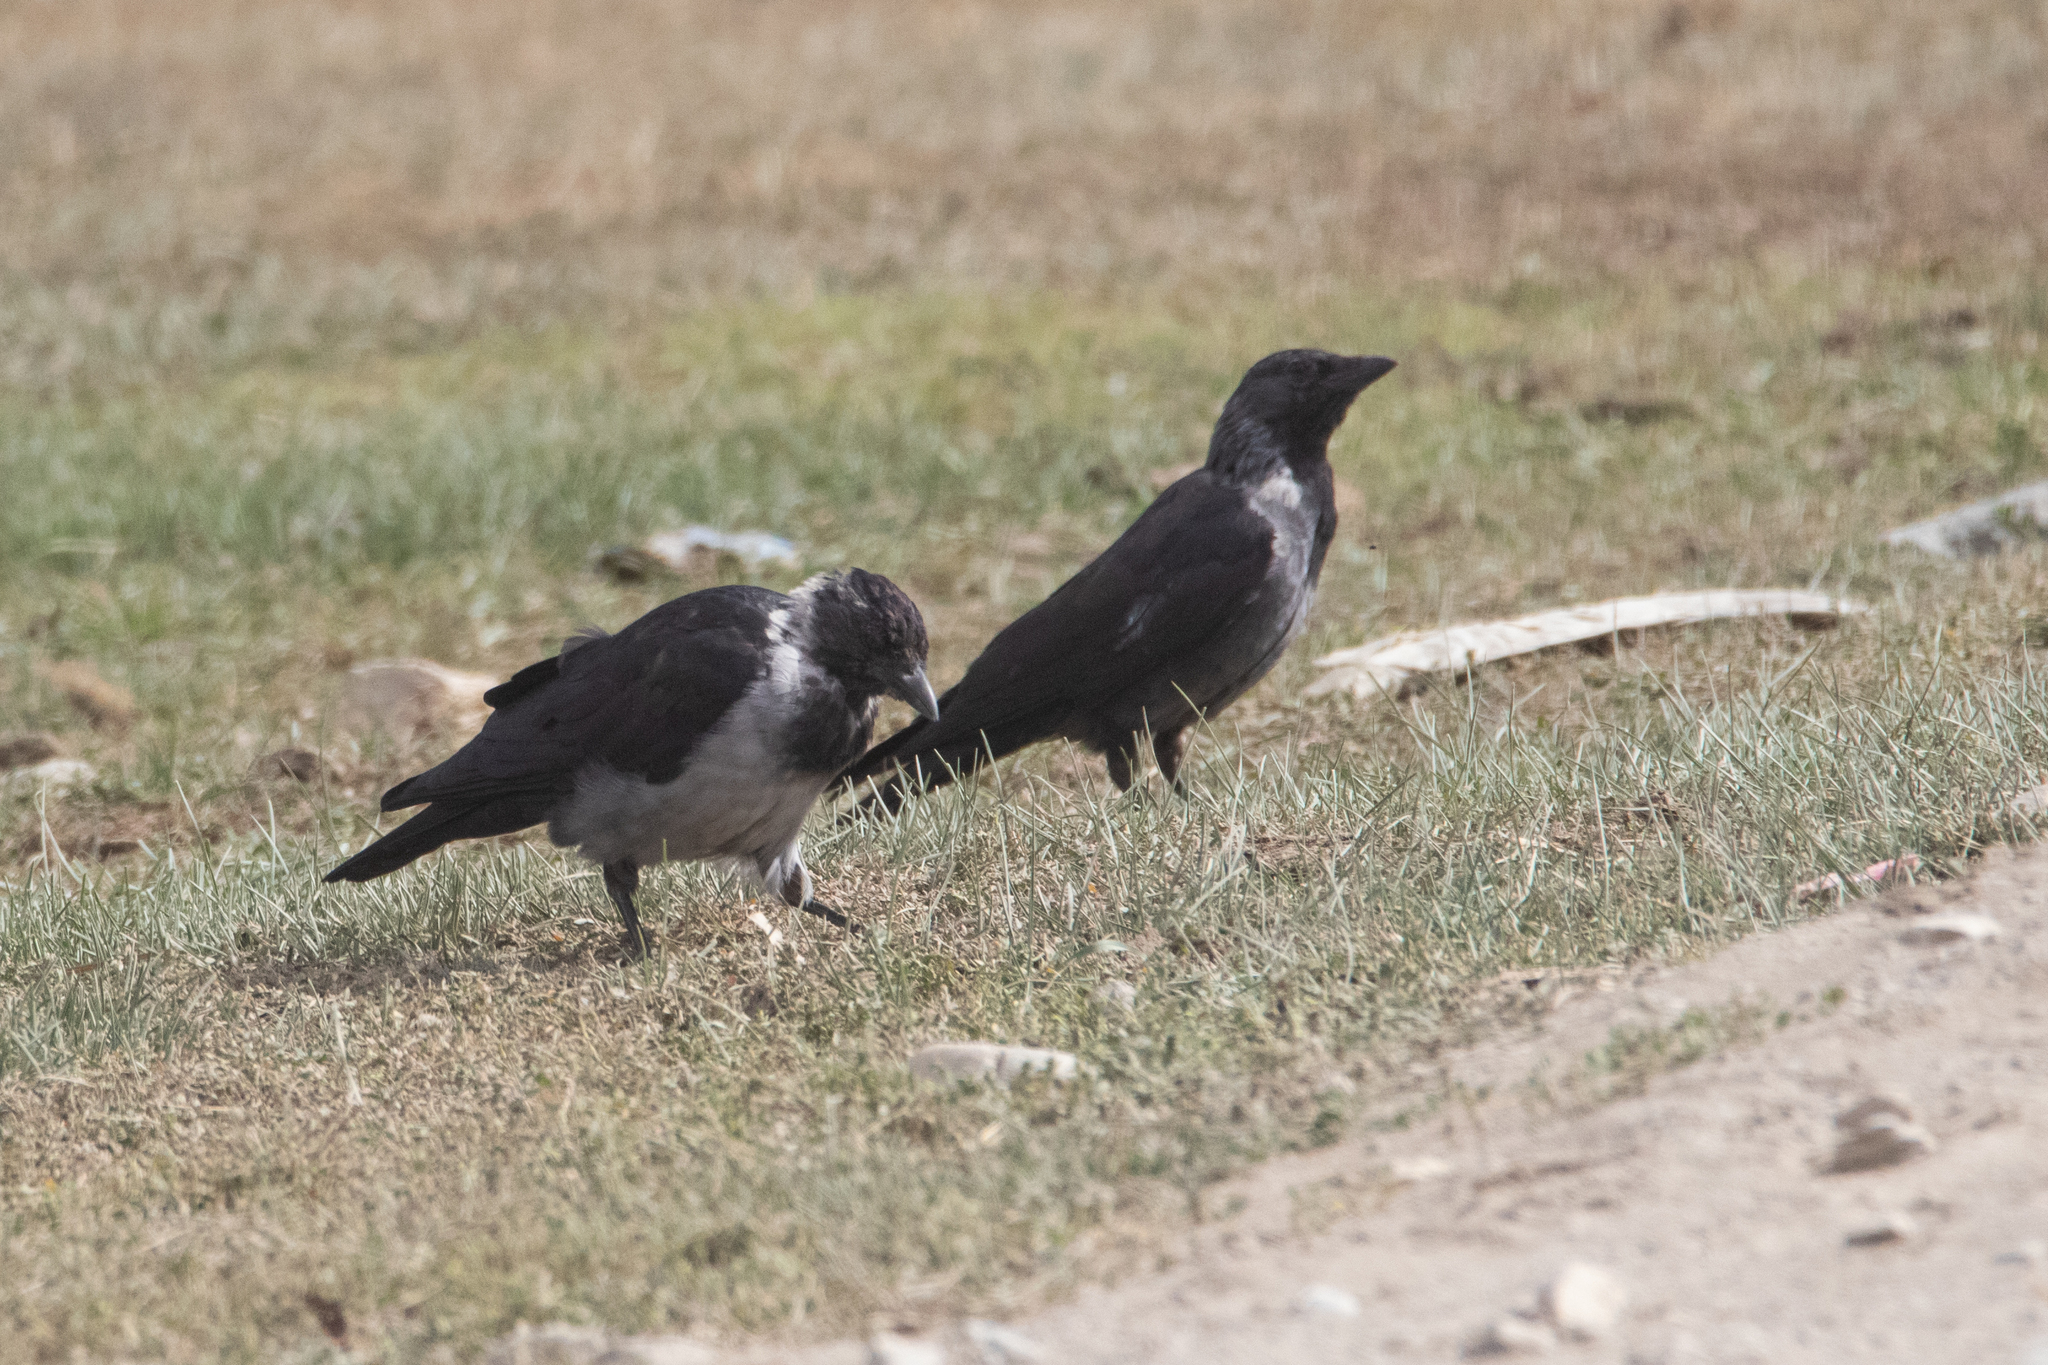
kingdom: Animalia
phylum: Chordata
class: Aves
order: Passeriformes
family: Corvidae
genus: Coloeus
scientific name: Coloeus dauuricus
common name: Daurian jackdaw
